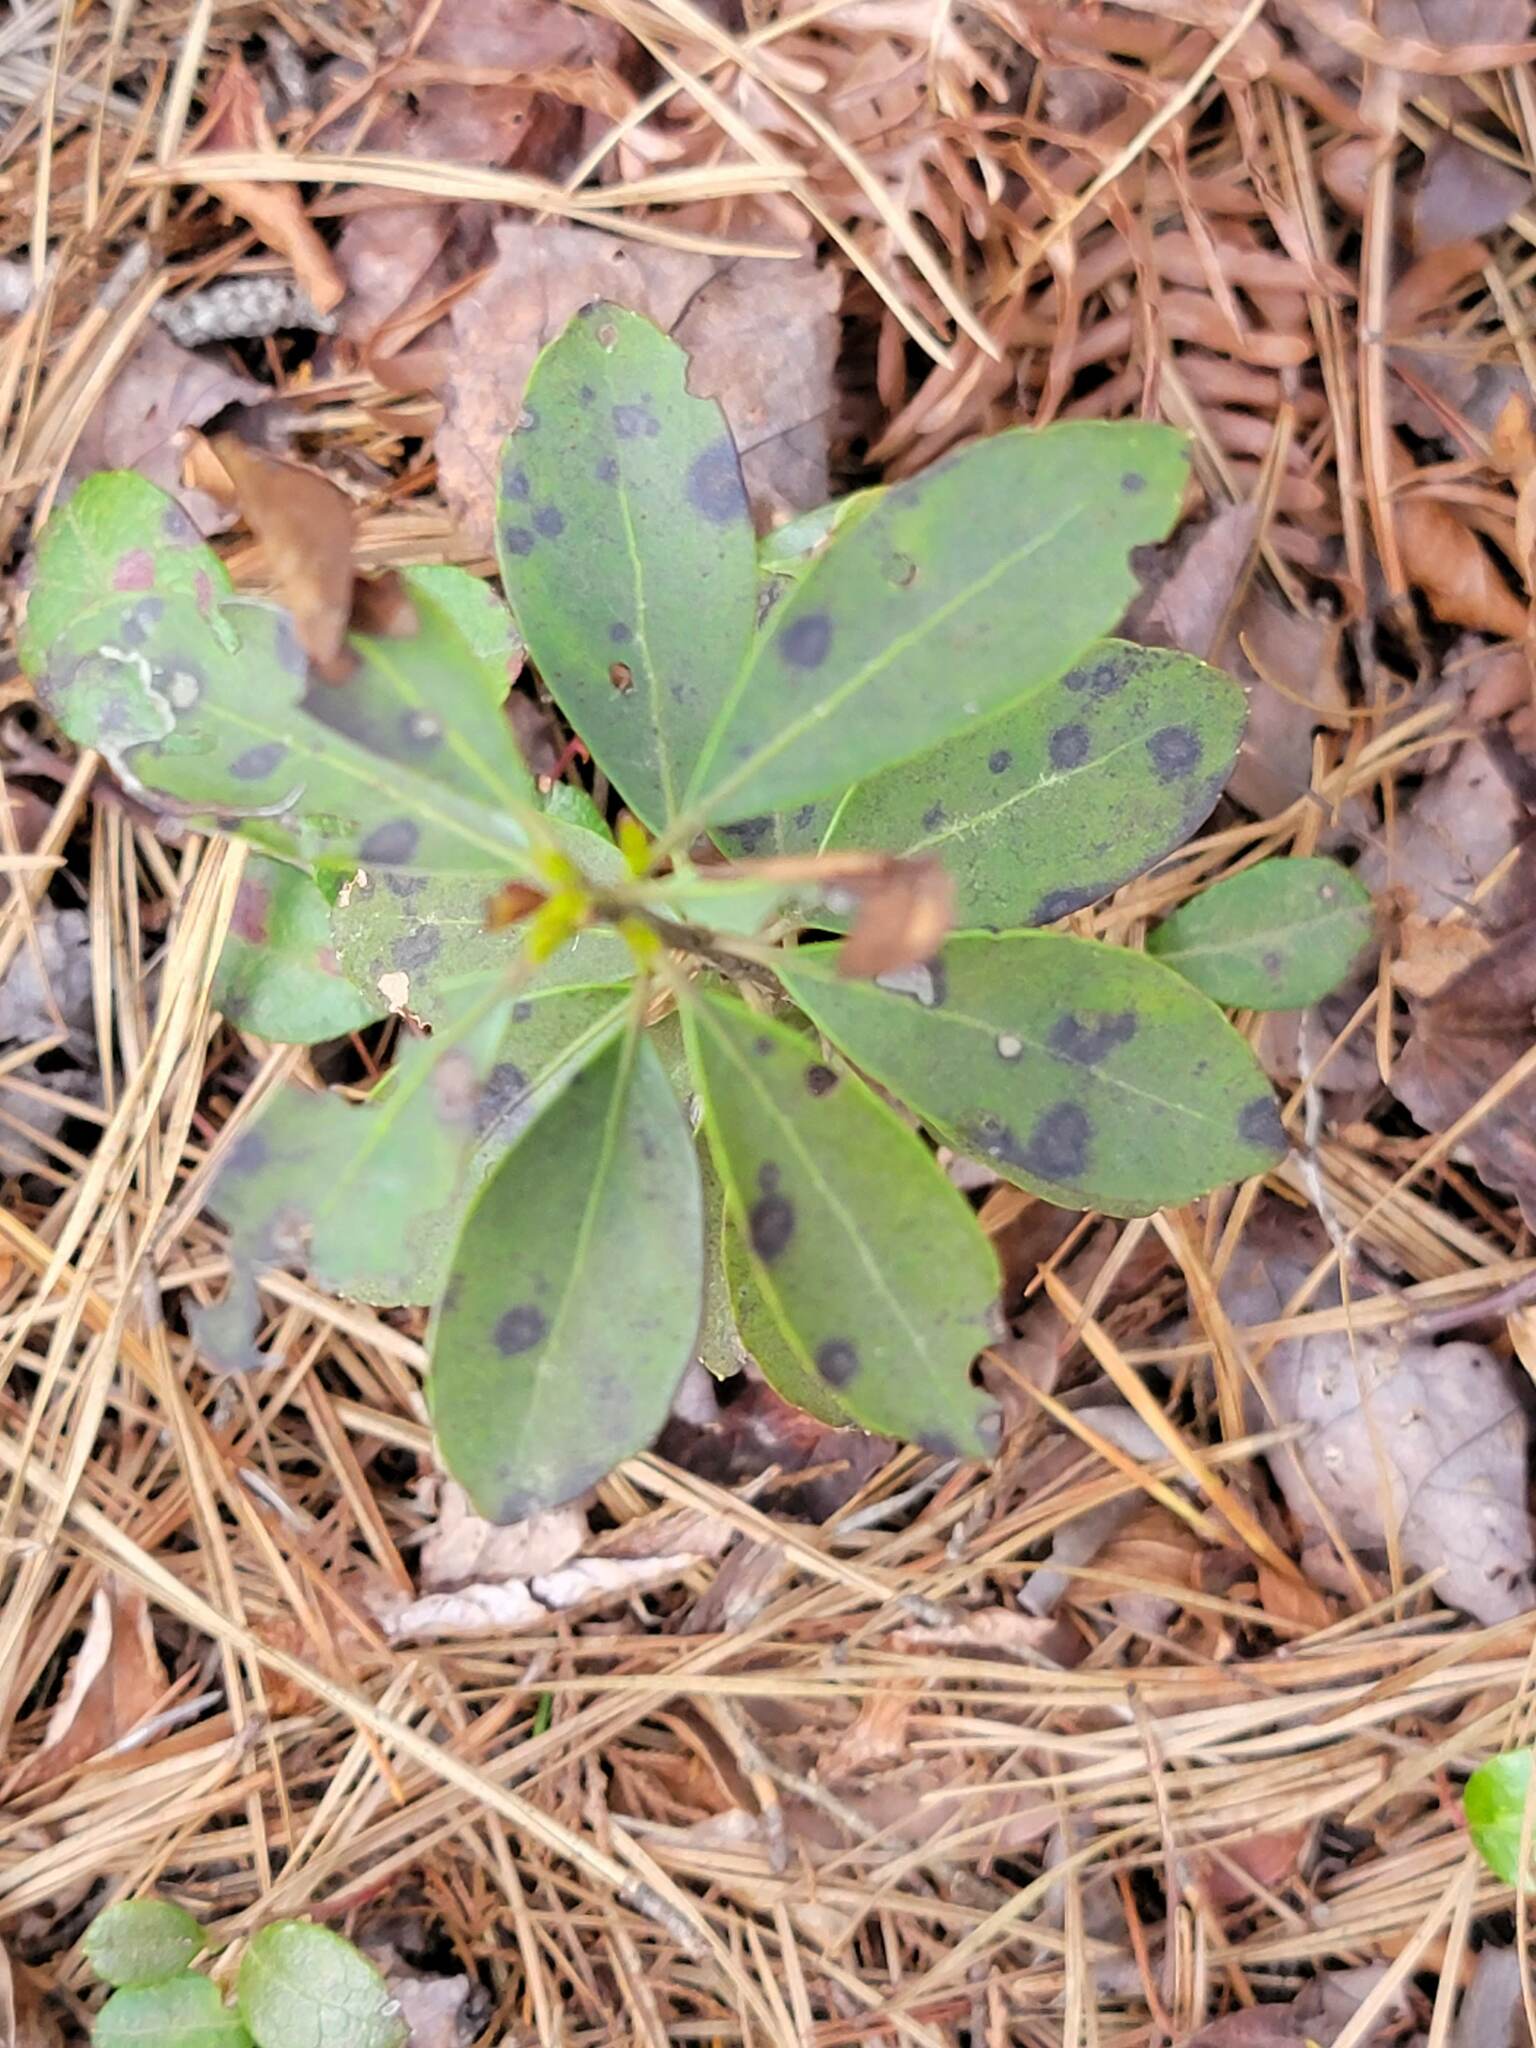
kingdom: Fungi
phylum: Ascomycota
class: Dothideomycetes
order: Mycosphaerellales
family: Mycosphaerellaceae
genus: Mycosphaerella
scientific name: Mycosphaerella colorata
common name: Mountain laurel leaf spot
